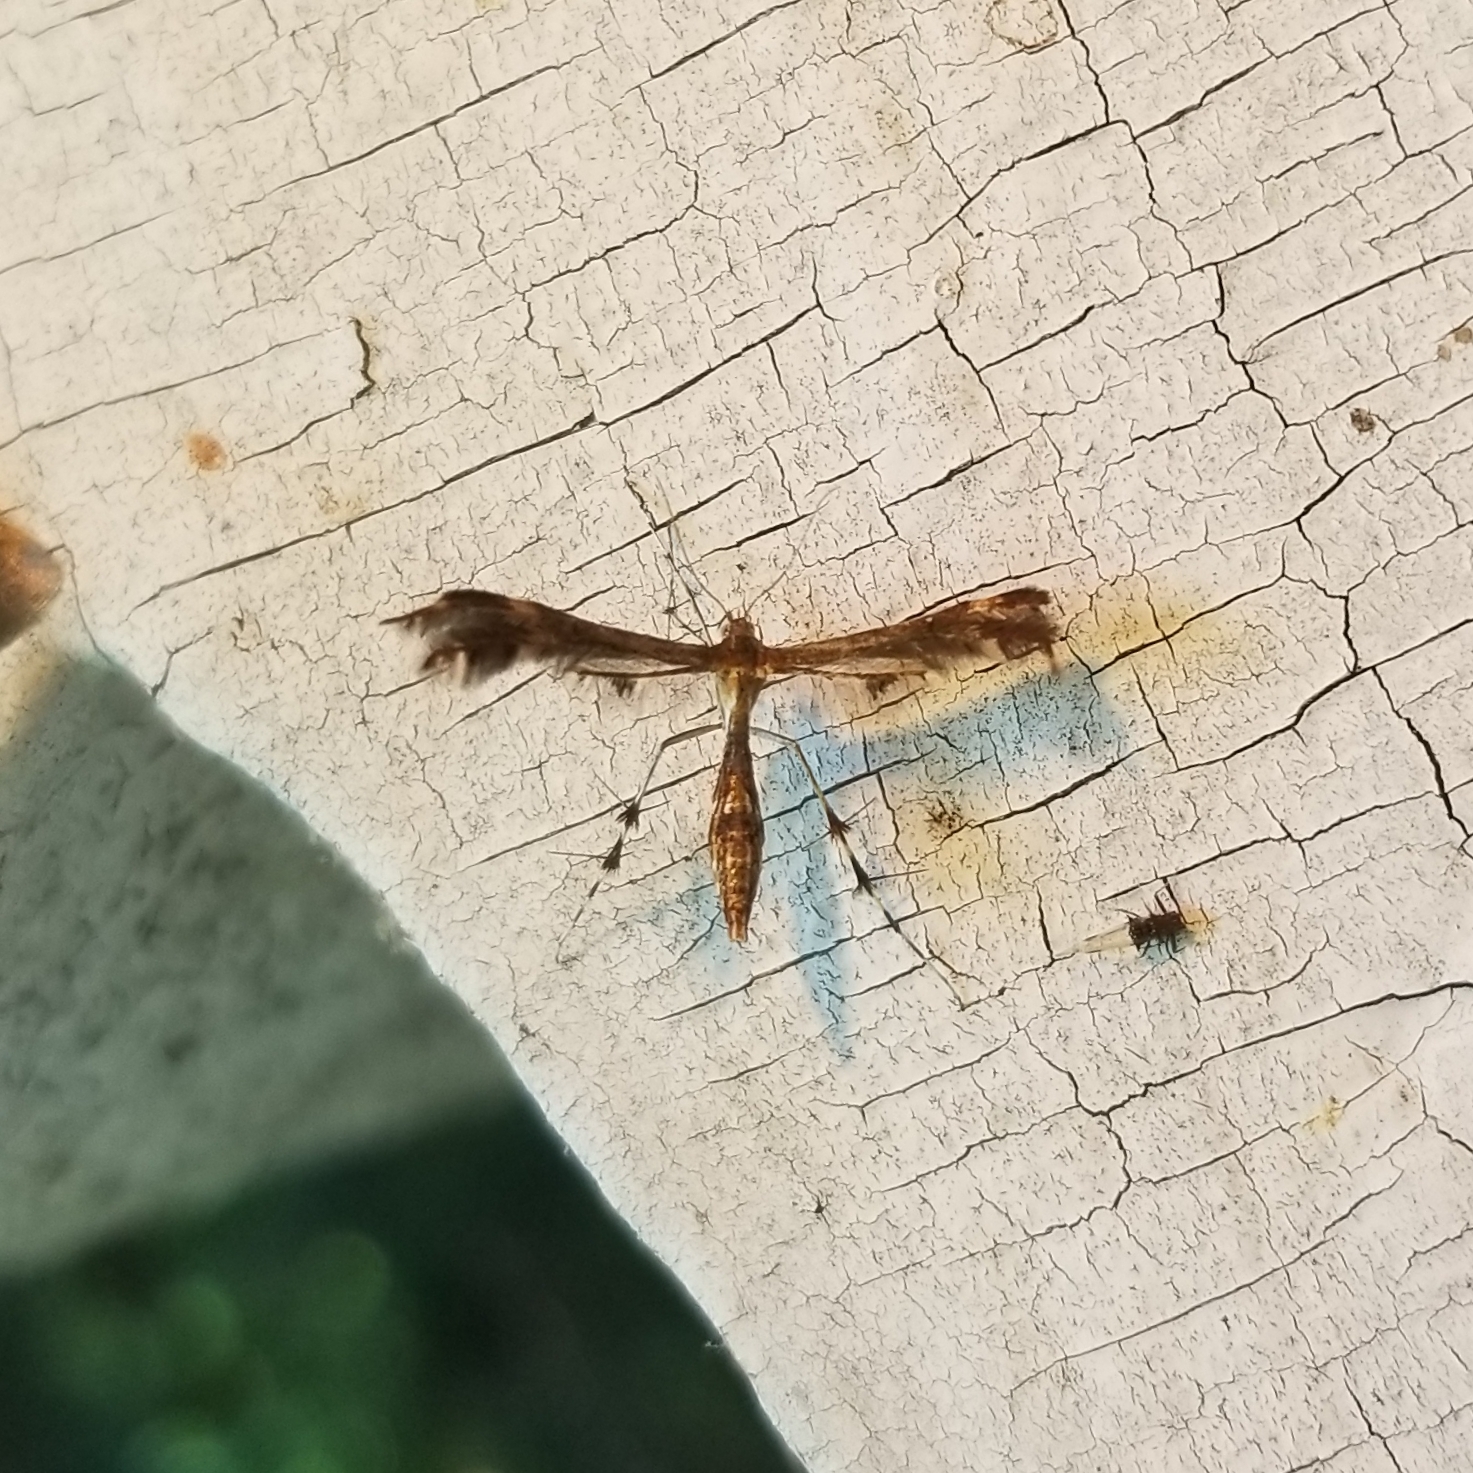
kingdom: Animalia
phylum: Arthropoda
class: Insecta
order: Lepidoptera
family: Pterophoridae
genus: Dejongia
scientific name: Dejongia lobidactylus
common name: Lobed plume moth
